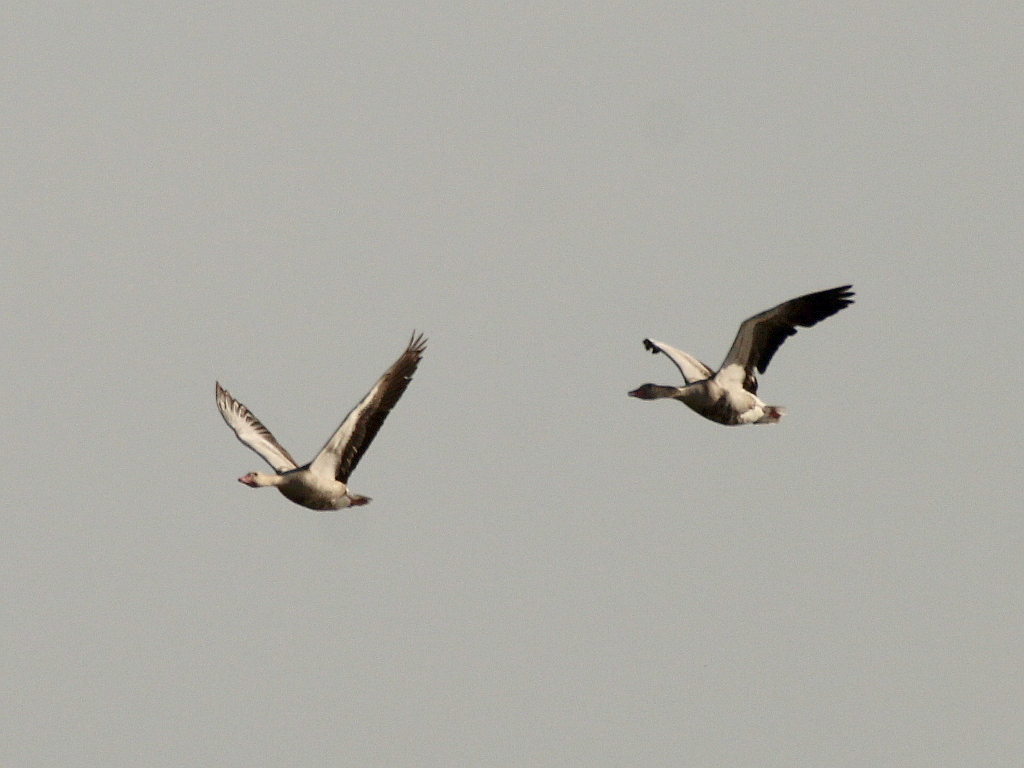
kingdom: Animalia
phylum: Chordata
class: Aves
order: Anseriformes
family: Anatidae
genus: Anser
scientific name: Anser anser
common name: Greylag goose
